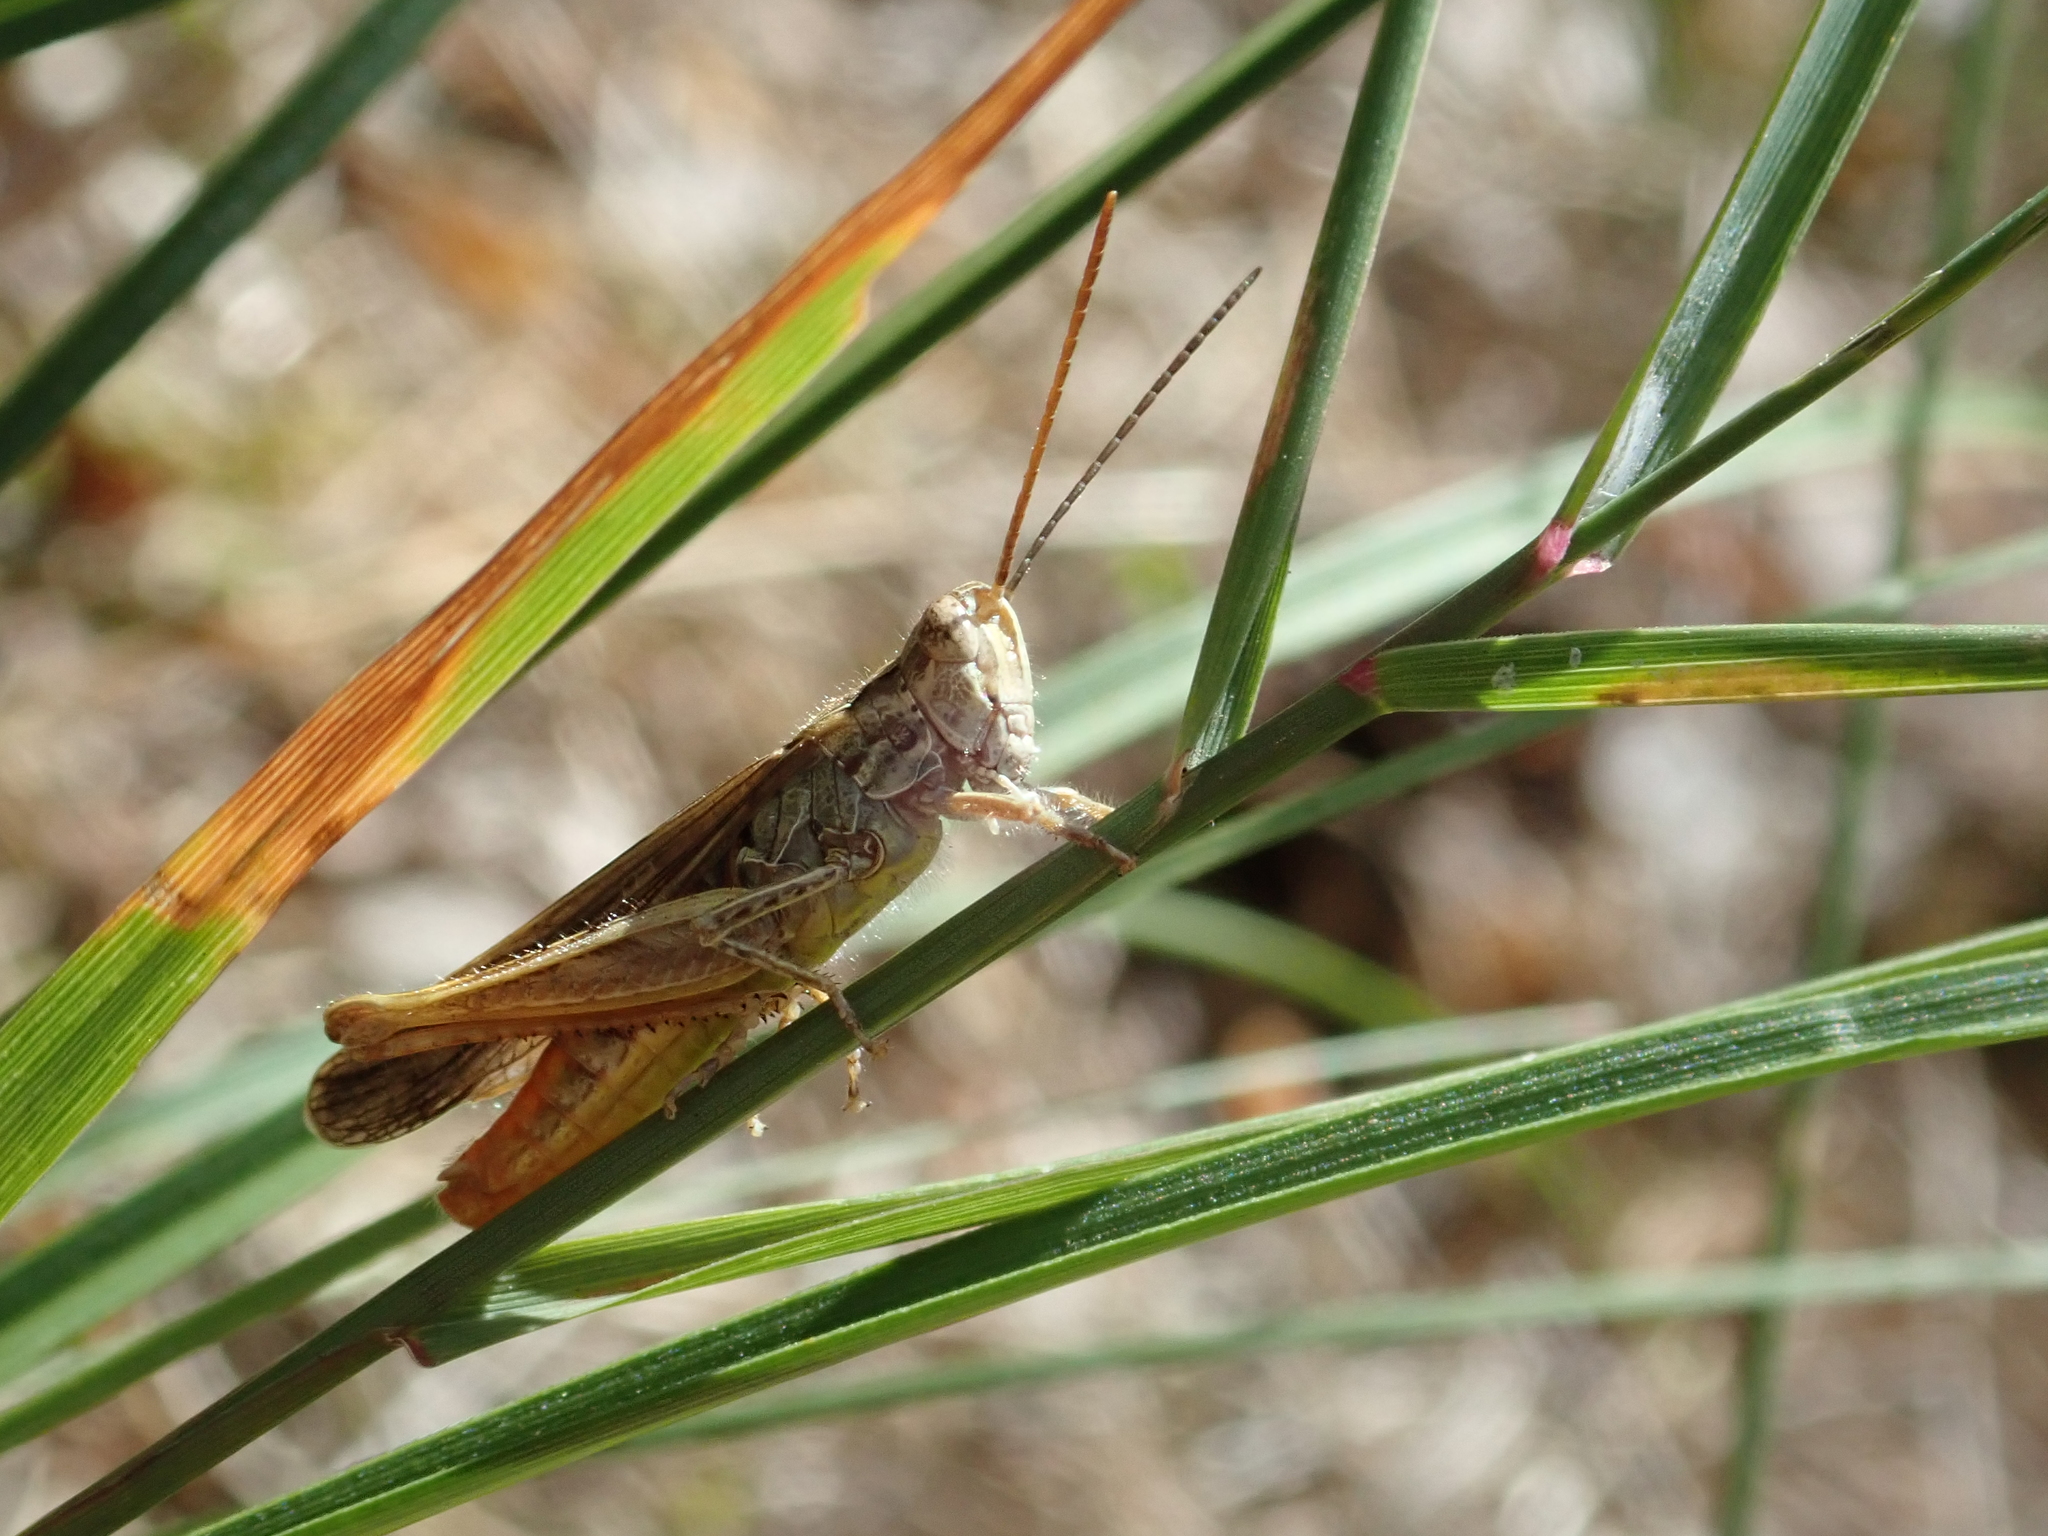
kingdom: Animalia
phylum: Arthropoda
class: Insecta
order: Orthoptera
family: Acrididae
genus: Chorthippus
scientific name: Chorthippus brunneus
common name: Field grasshopper
